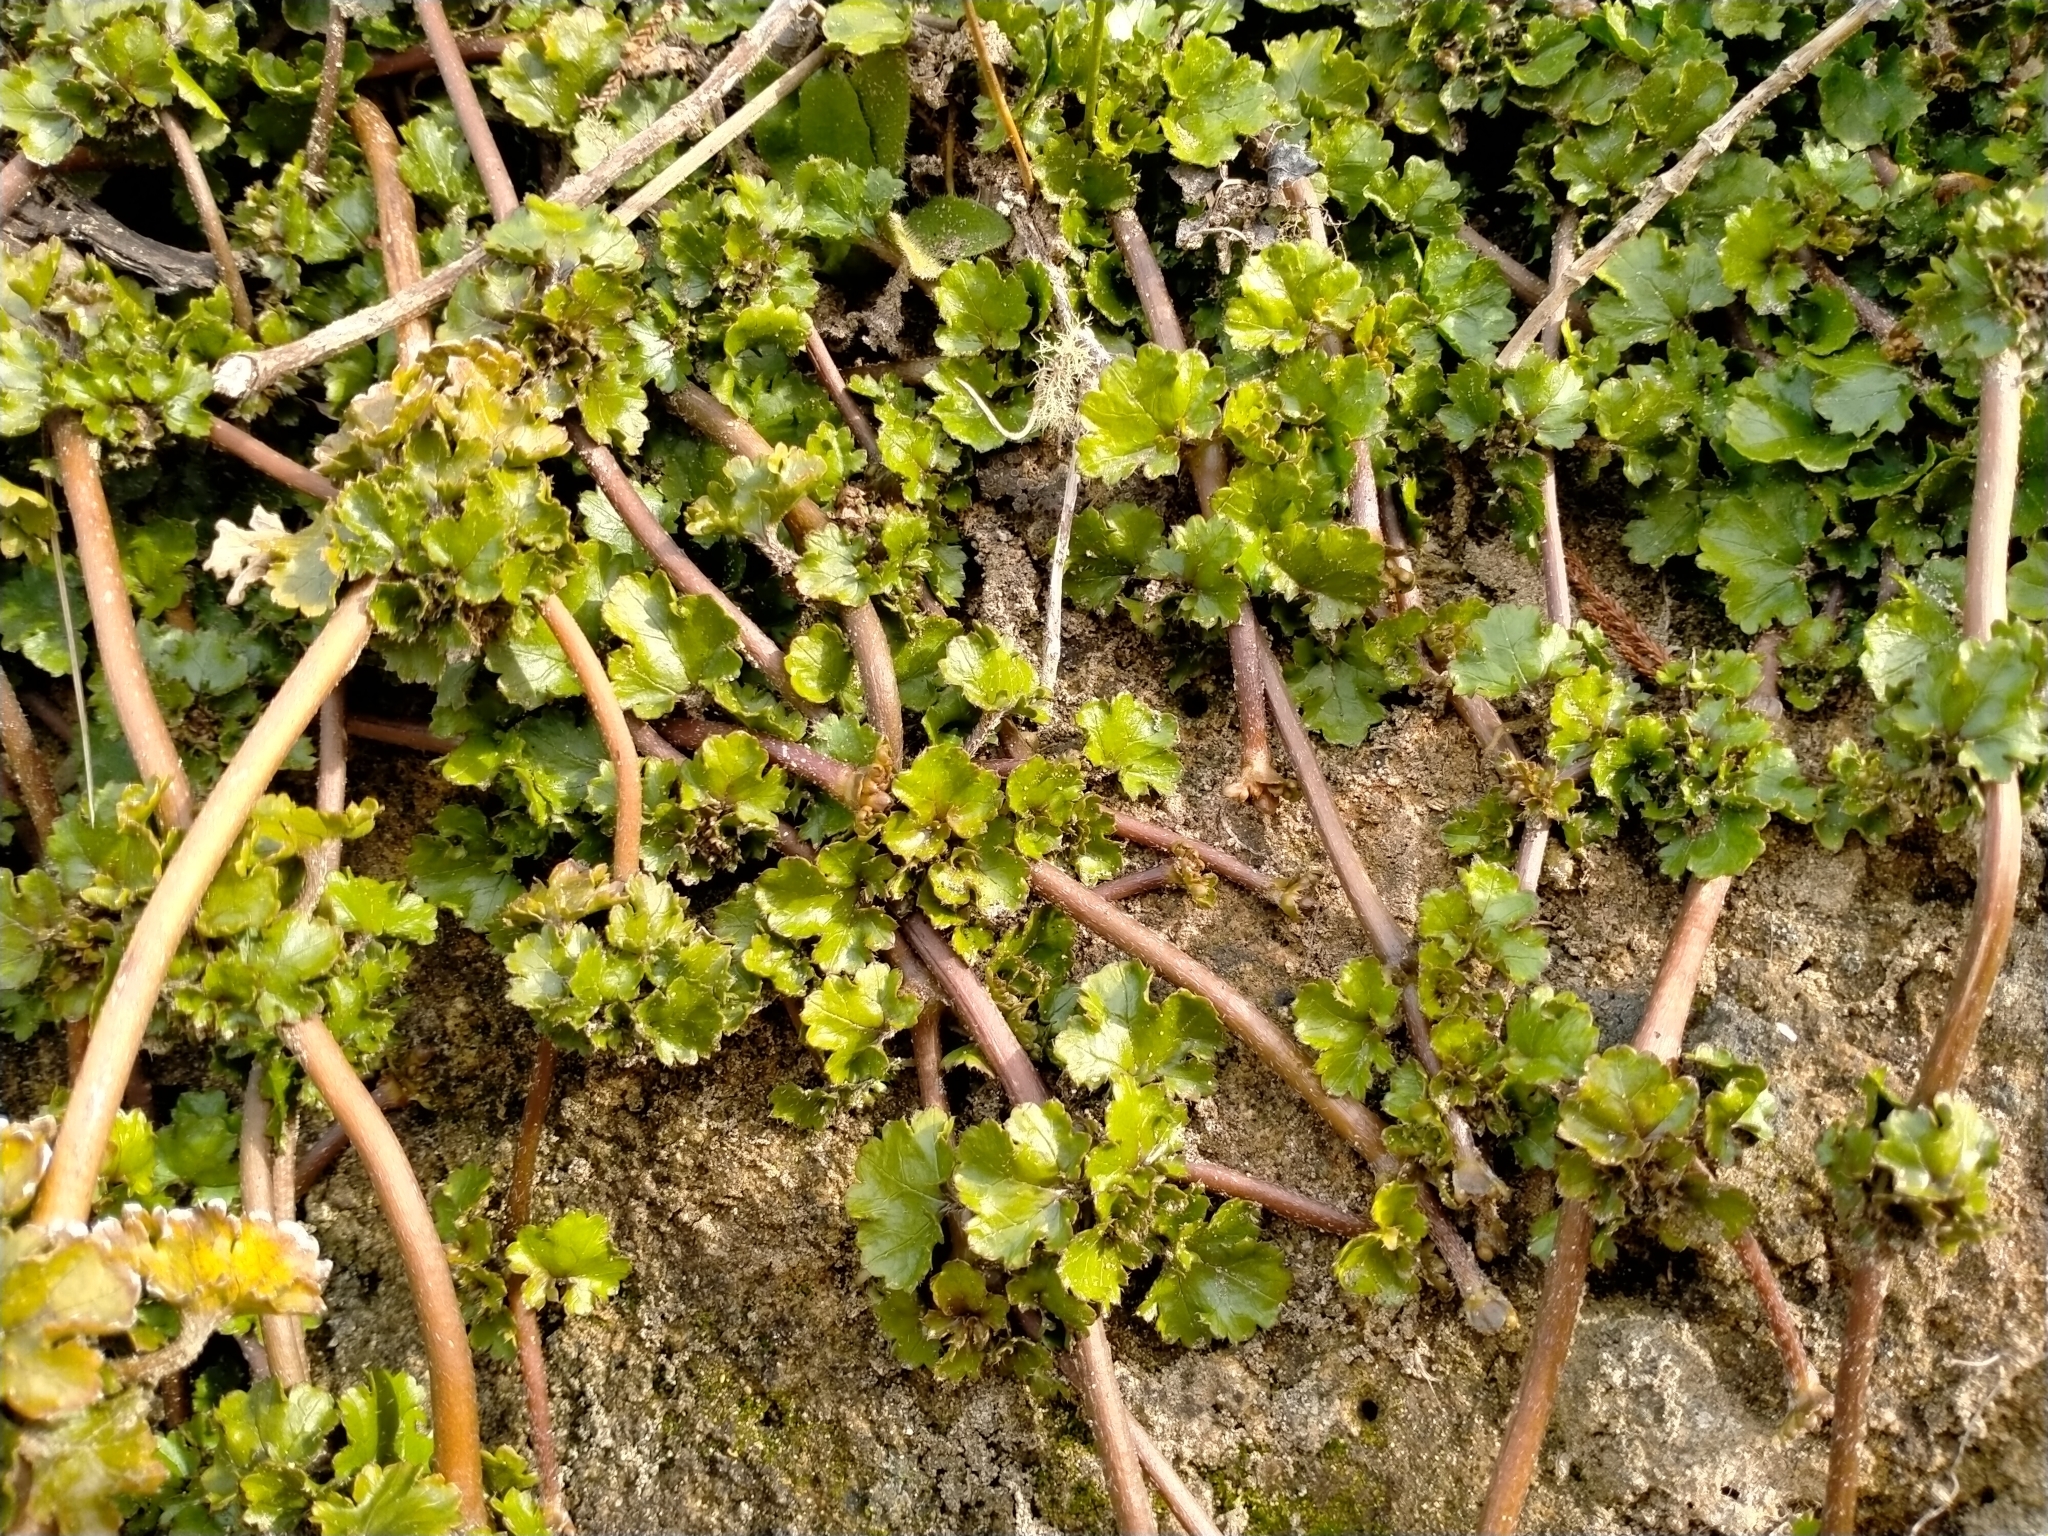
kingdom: Plantae
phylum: Tracheophyta
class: Magnoliopsida
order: Gunnerales
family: Gunneraceae
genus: Gunnera
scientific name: Gunnera monoica
